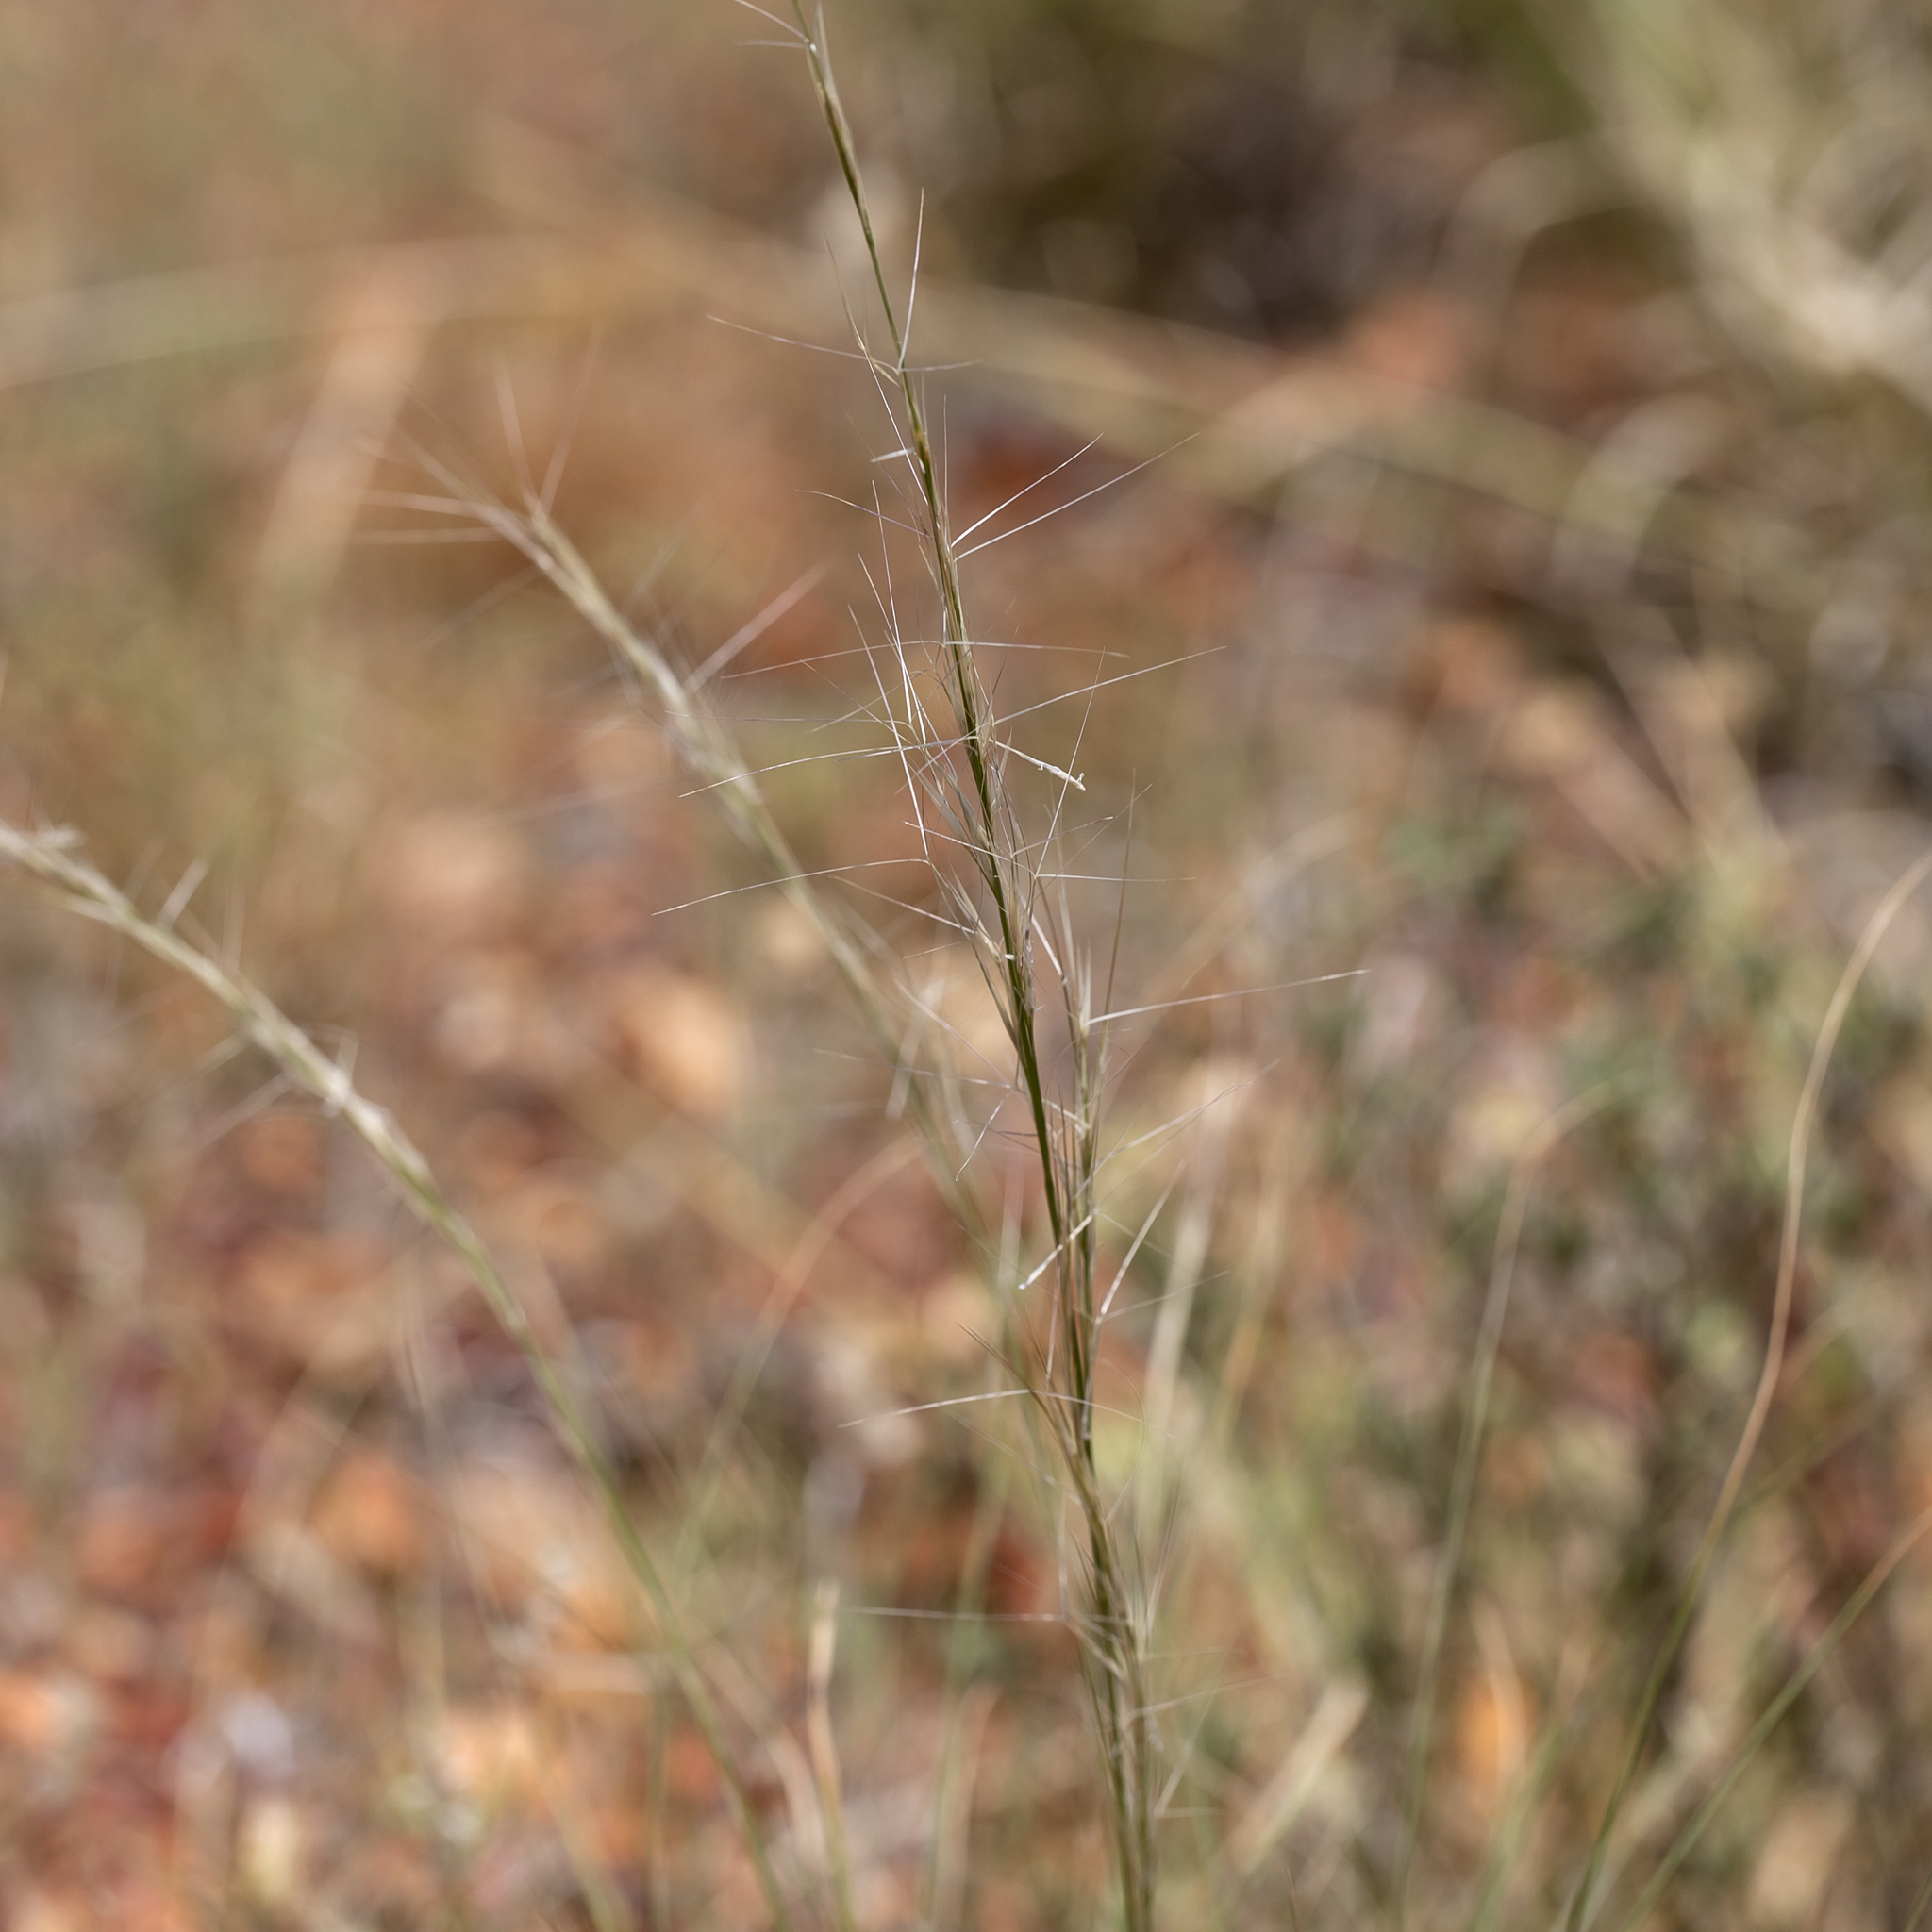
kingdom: Plantae
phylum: Tracheophyta
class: Liliopsida
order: Poales
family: Poaceae
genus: Aristida
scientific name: Aristida latifolia
